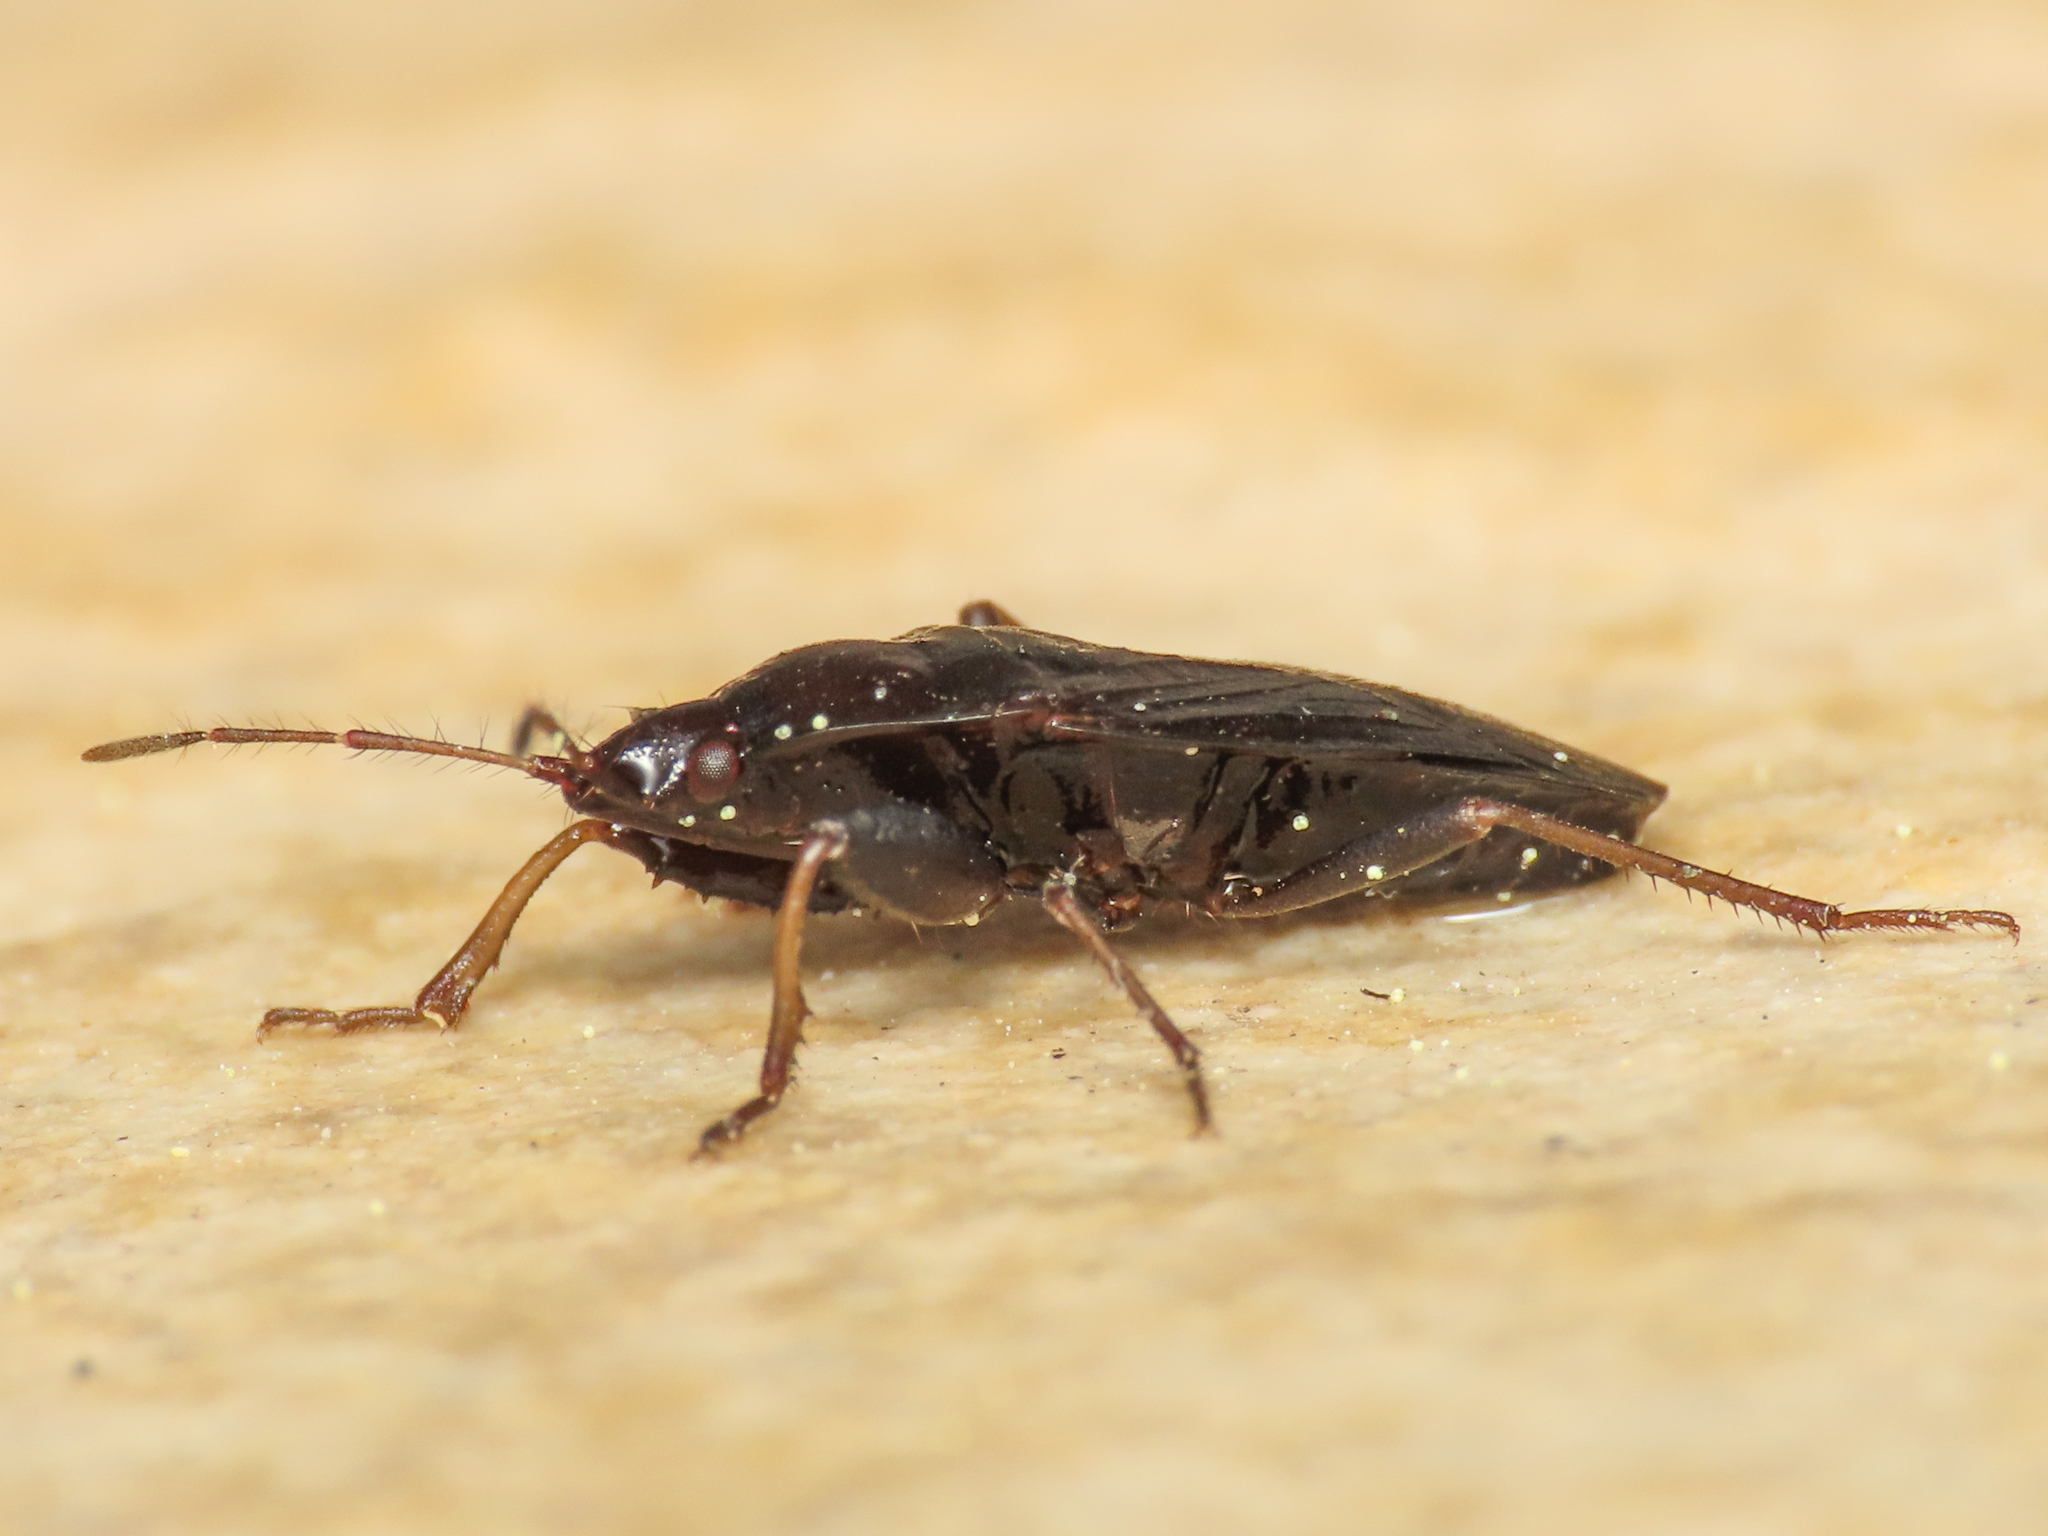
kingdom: Animalia
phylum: Arthropoda
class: Insecta
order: Hemiptera
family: Rhyparochromidae
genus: Neurocladus
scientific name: Neurocladus brachiidens
